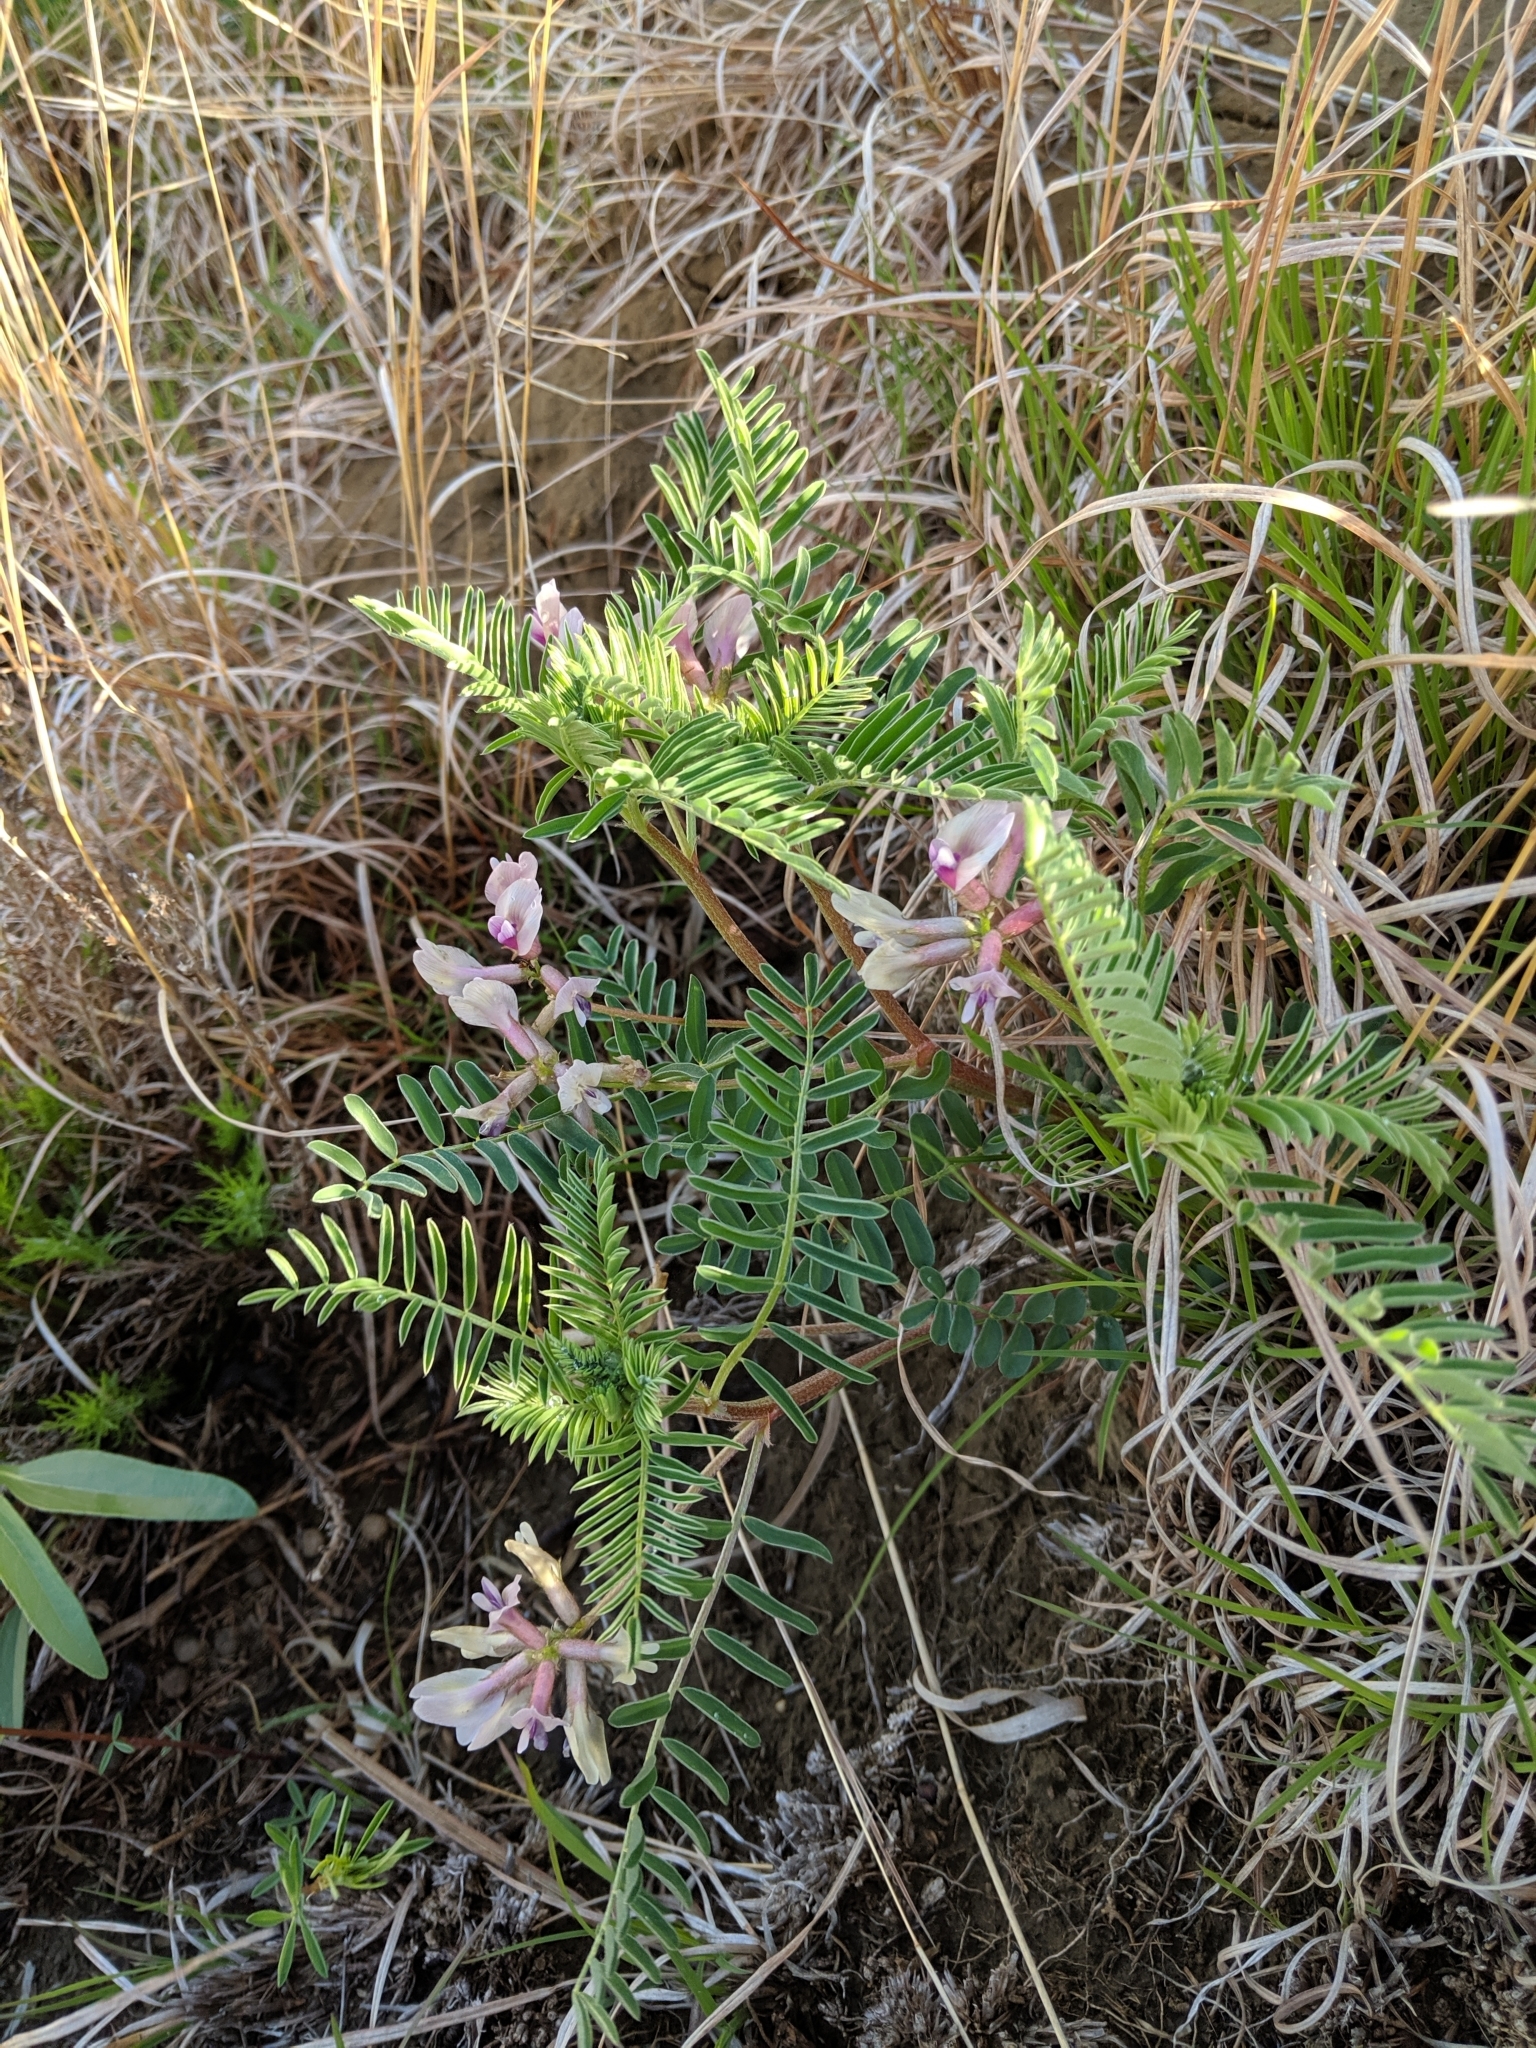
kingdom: Plantae
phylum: Tracheophyta
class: Magnoliopsida
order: Fabales
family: Fabaceae
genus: Astragalus
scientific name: Astragalus crassicarpus
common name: Ground-plum milk-vetch
